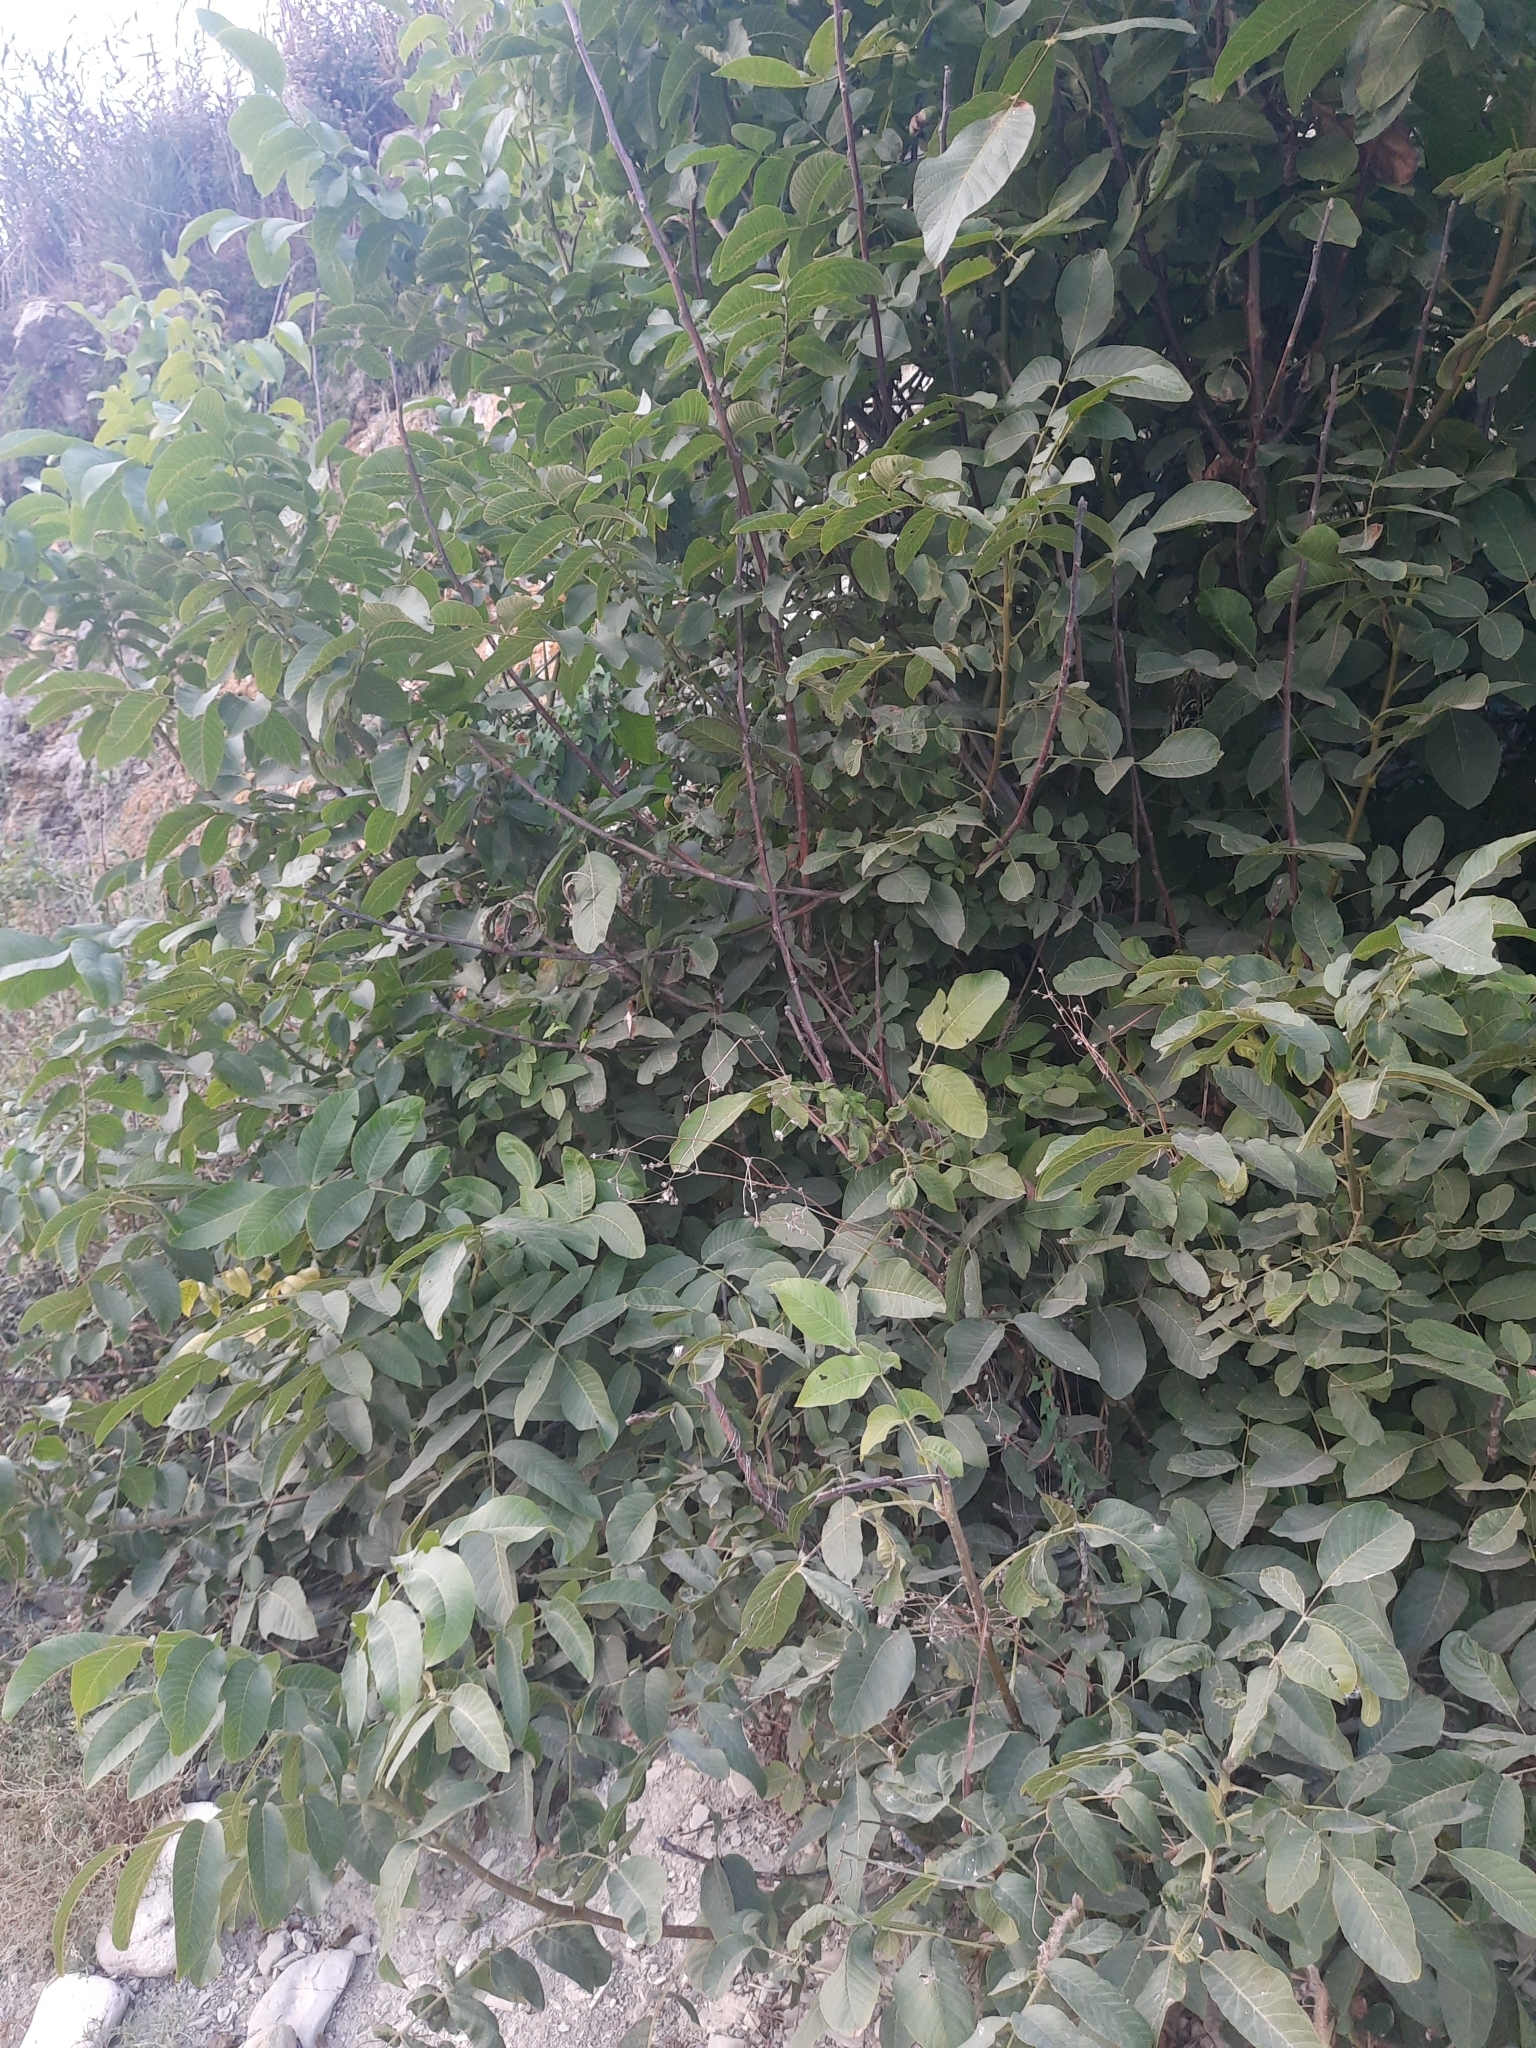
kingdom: Plantae
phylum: Tracheophyta
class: Magnoliopsida
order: Fagales
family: Juglandaceae
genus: Juglans
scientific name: Juglans regia
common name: Walnut
